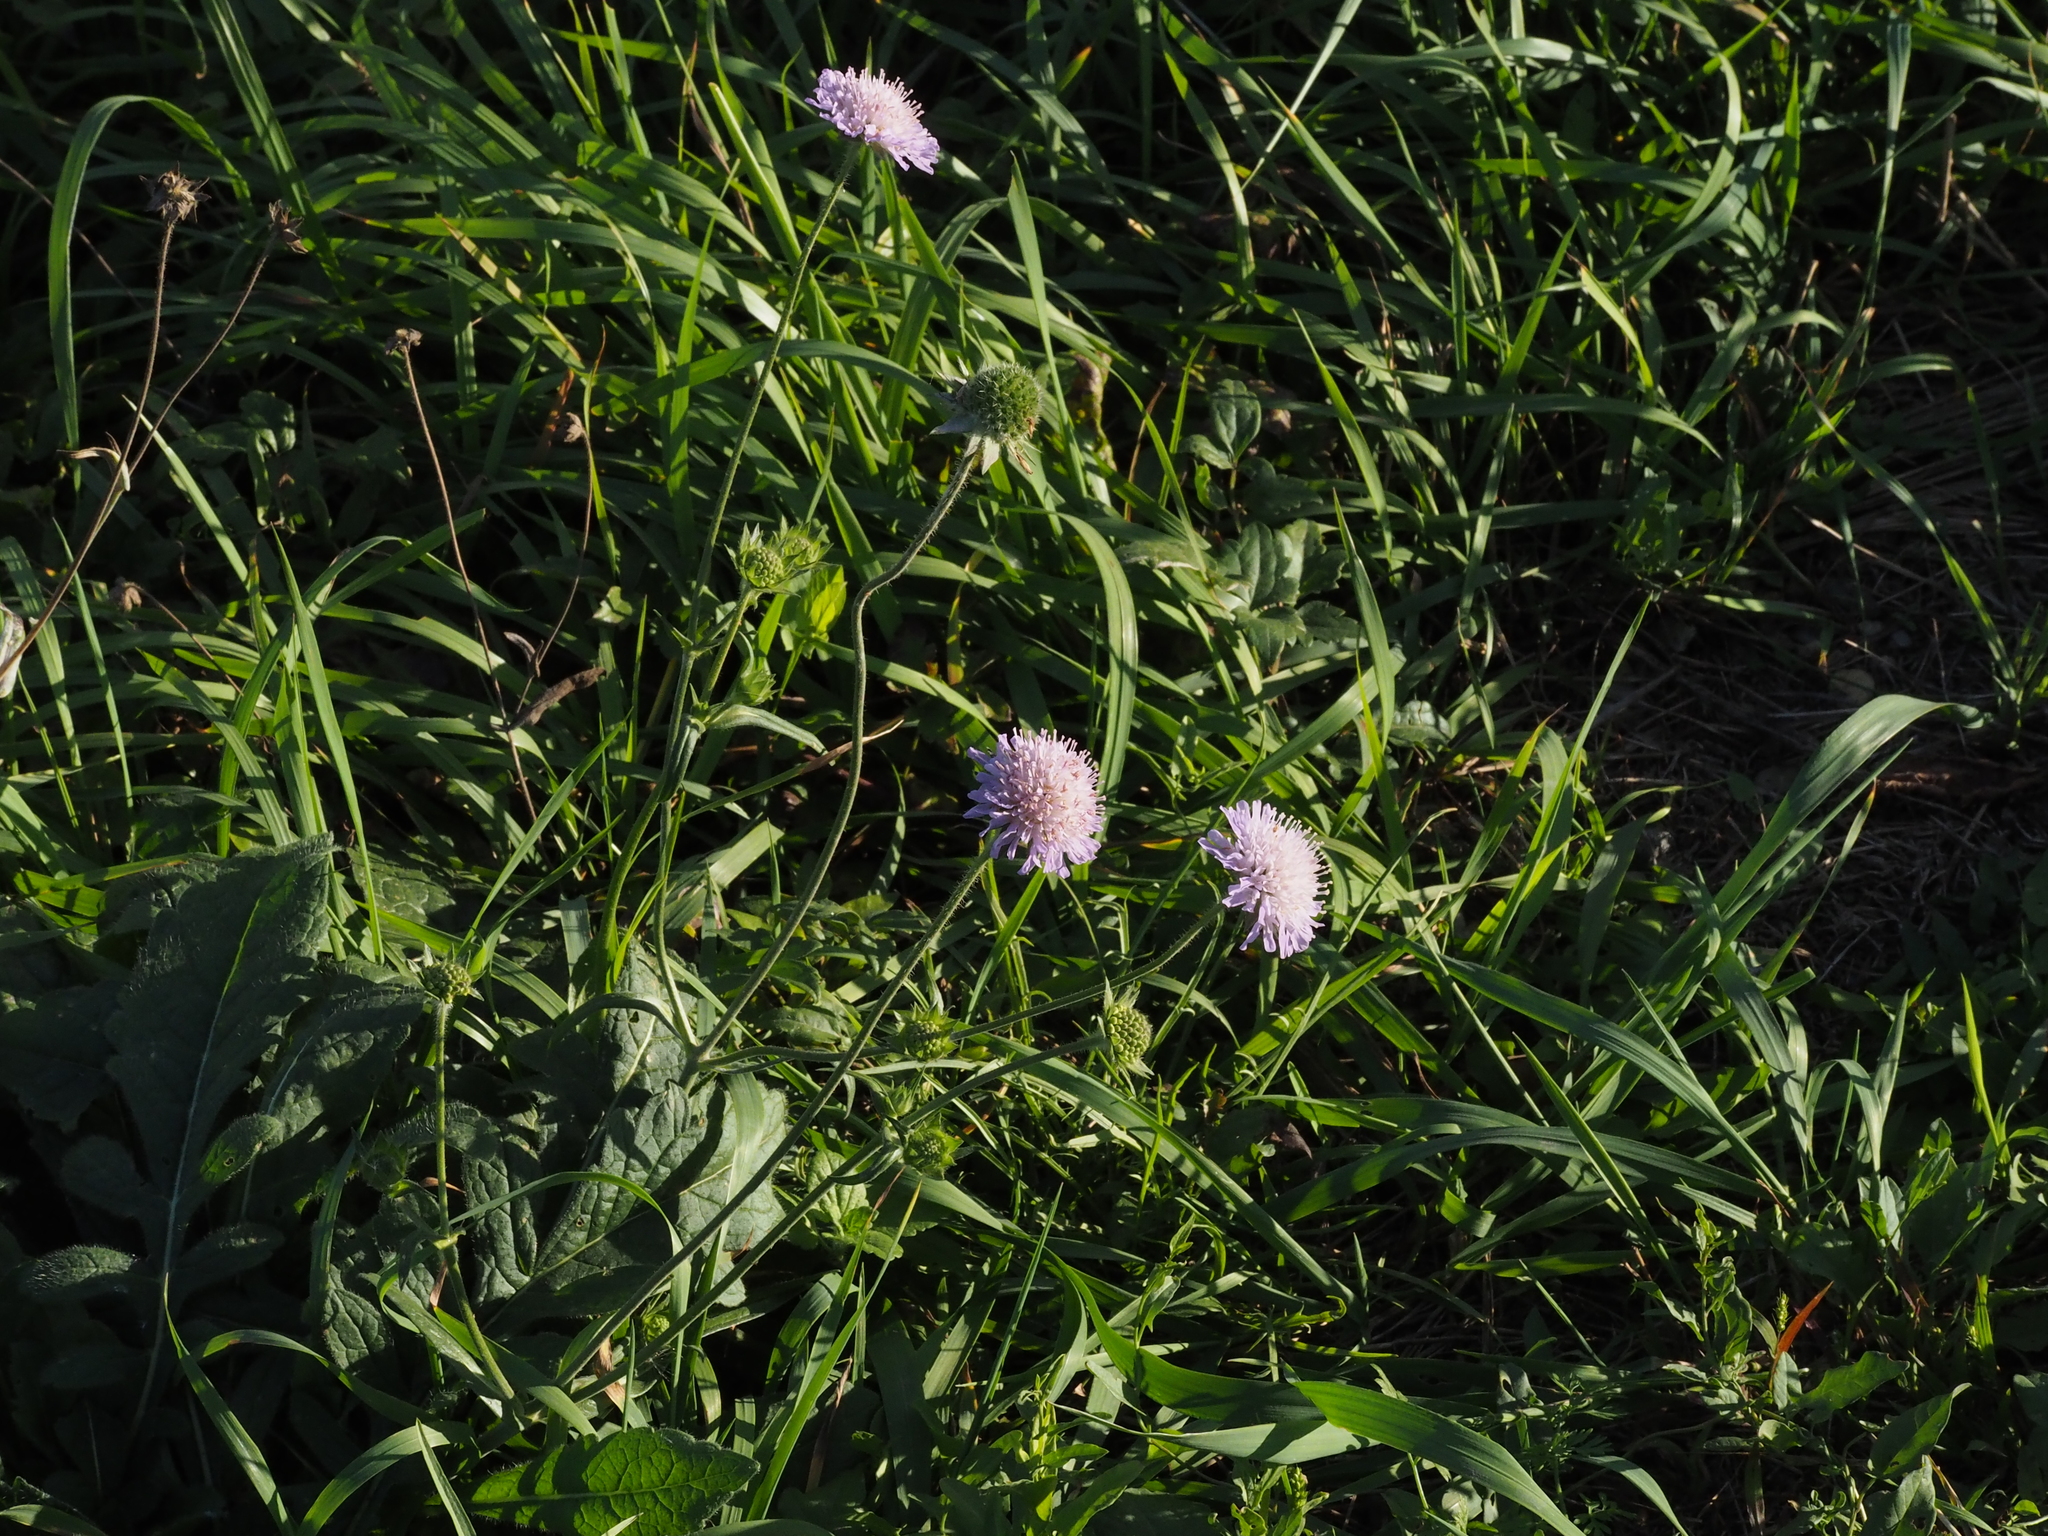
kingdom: Plantae
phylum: Tracheophyta
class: Magnoliopsida
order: Dipsacales
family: Caprifoliaceae
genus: Knautia
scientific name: Knautia arvensis
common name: Field scabiosa
